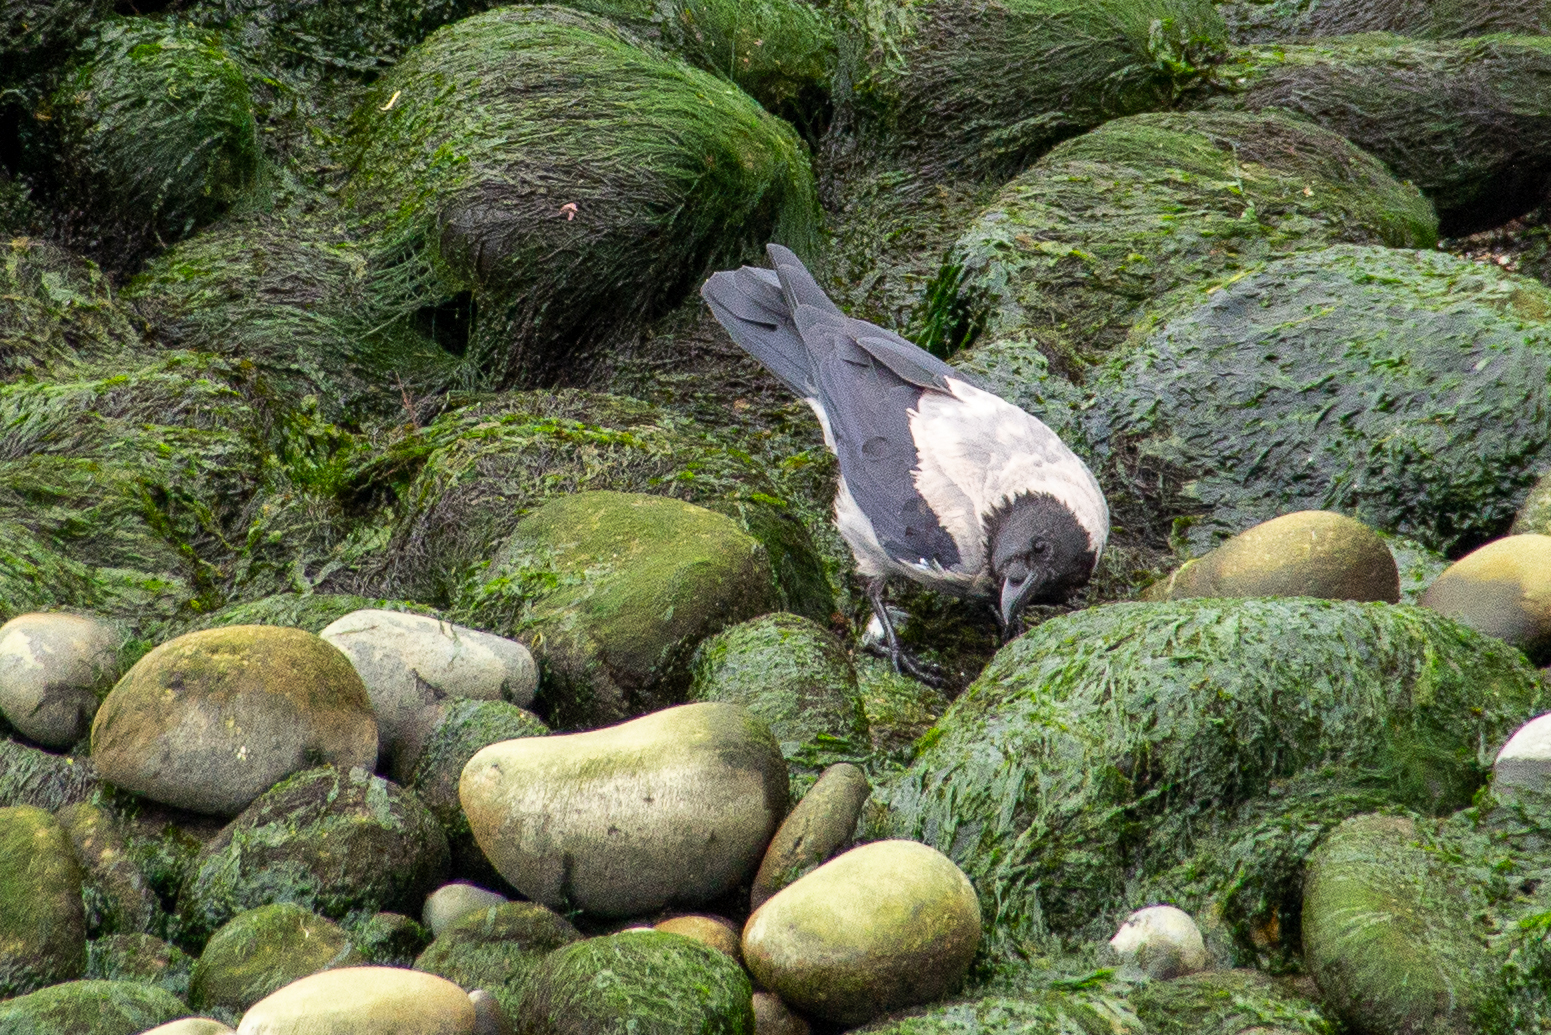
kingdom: Animalia
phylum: Chordata
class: Aves
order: Passeriformes
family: Corvidae
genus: Corvus
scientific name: Corvus cornix
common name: Hooded crow
